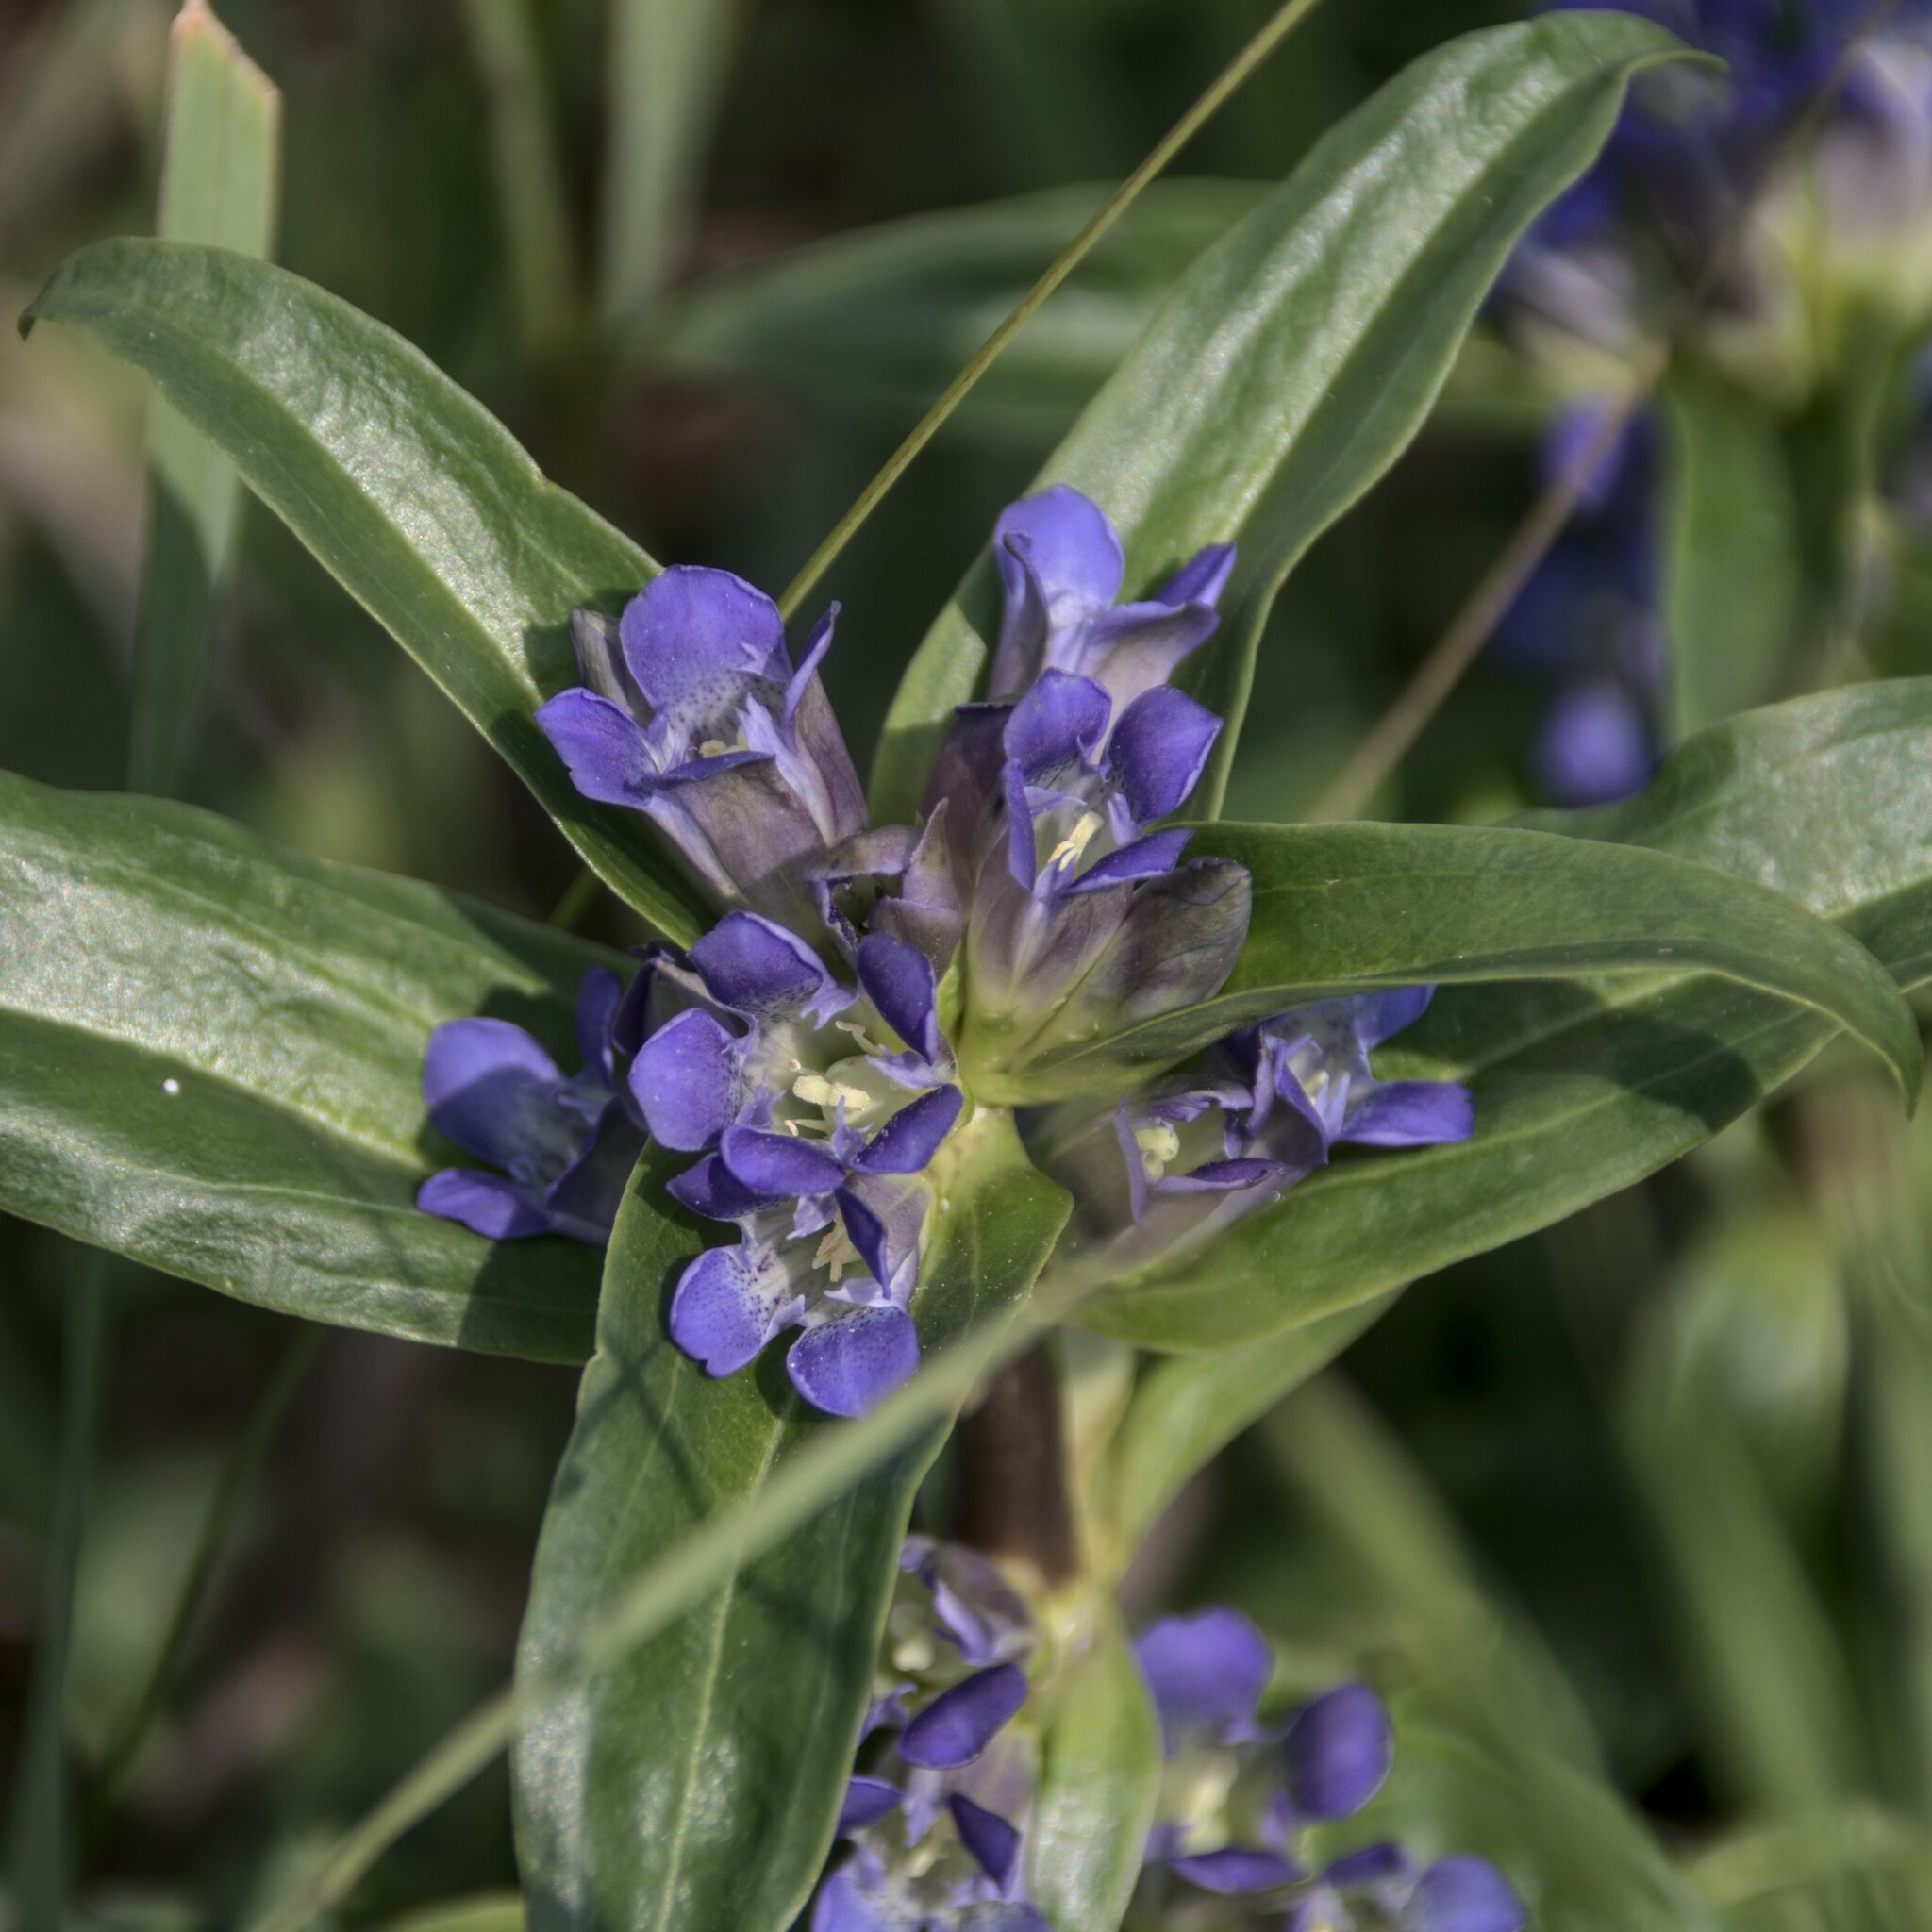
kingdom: Plantae
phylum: Tracheophyta
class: Magnoliopsida
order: Gentianales
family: Gentianaceae
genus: Gentiana
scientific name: Gentiana cruciata
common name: Cross gentian
